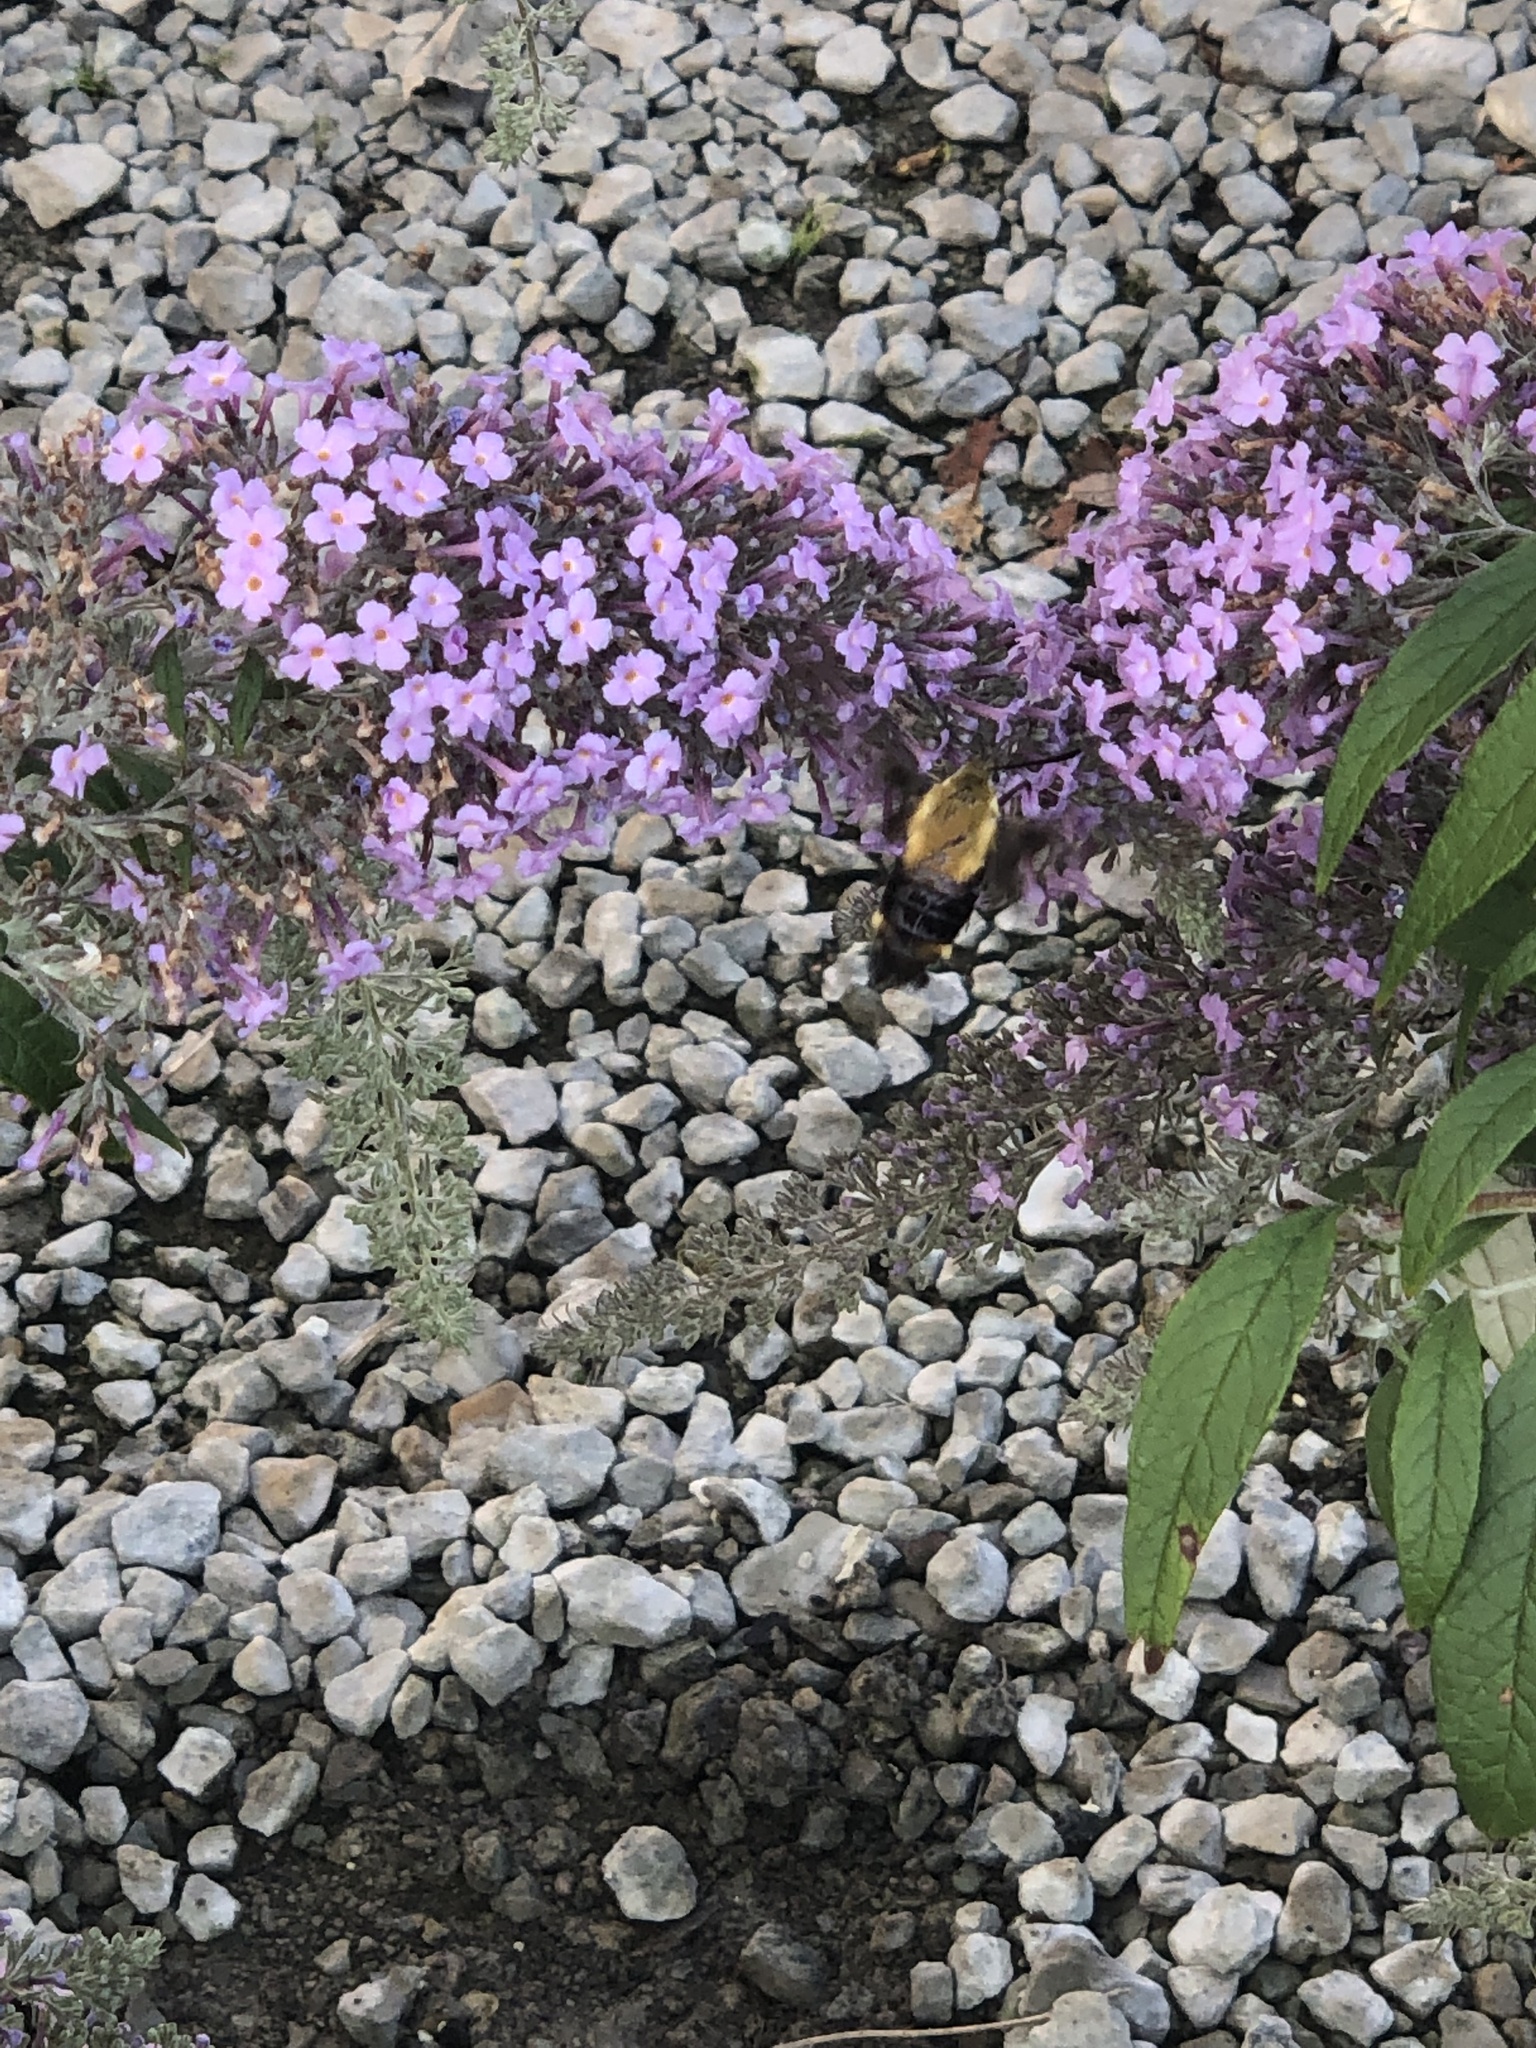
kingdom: Animalia
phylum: Arthropoda
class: Insecta
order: Lepidoptera
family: Sphingidae
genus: Hemaris
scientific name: Hemaris diffinis
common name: Bumblebee moth
